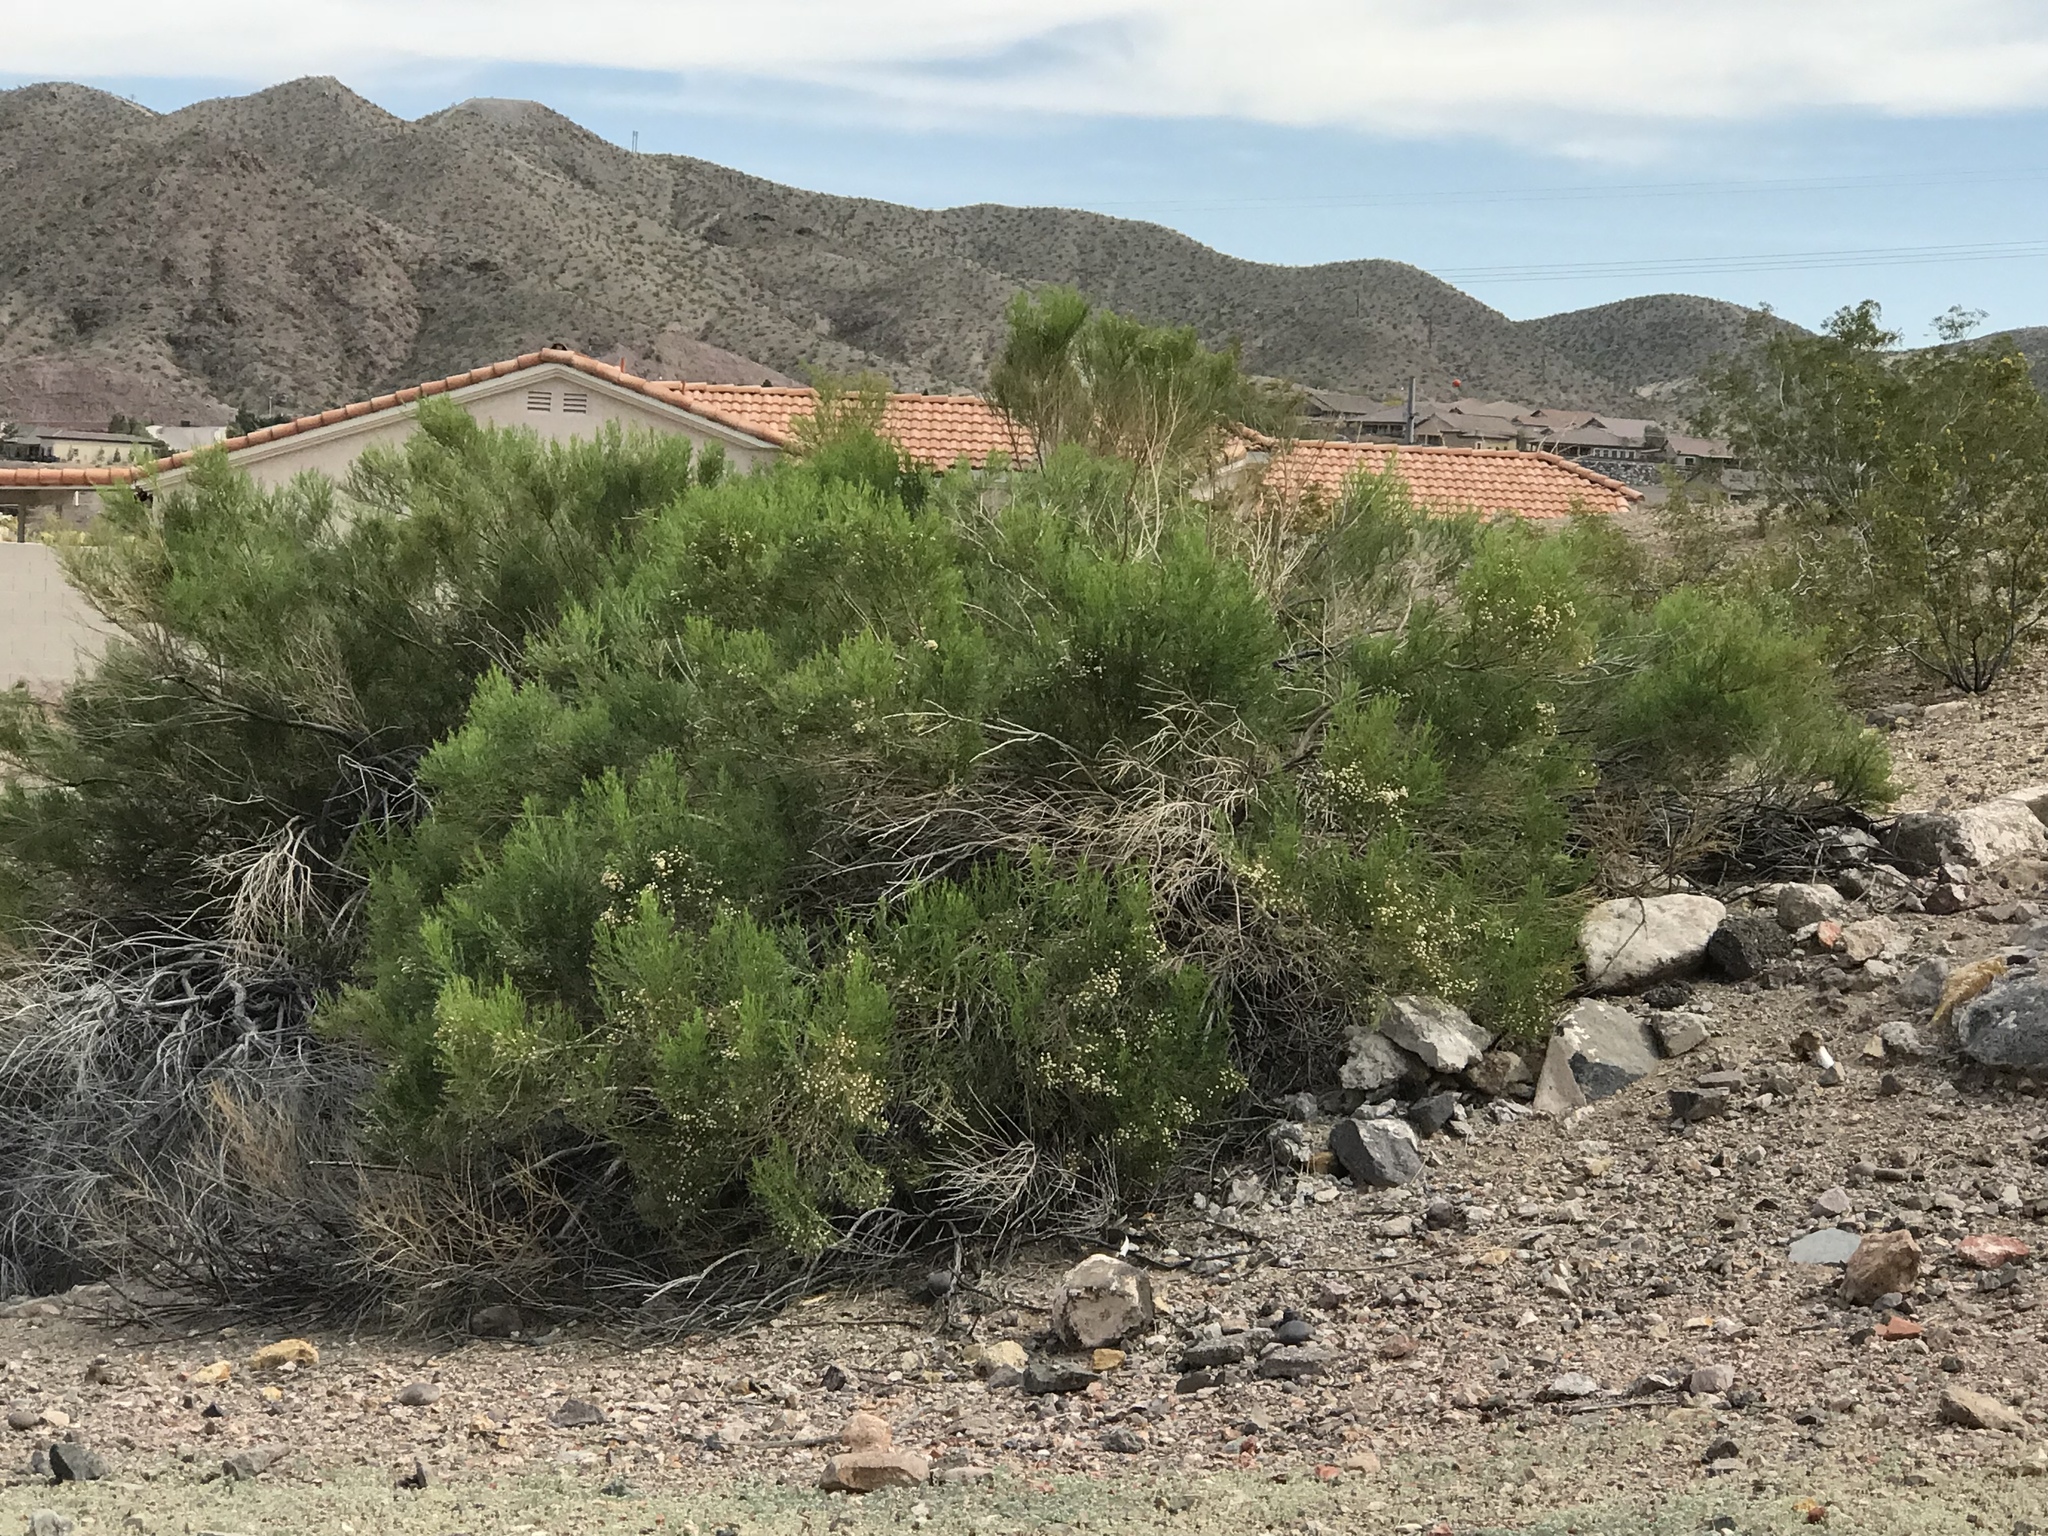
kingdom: Plantae
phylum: Tracheophyta
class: Magnoliopsida
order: Asterales
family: Asteraceae
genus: Baccharis
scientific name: Baccharis sarothroides
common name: Desert-broom
